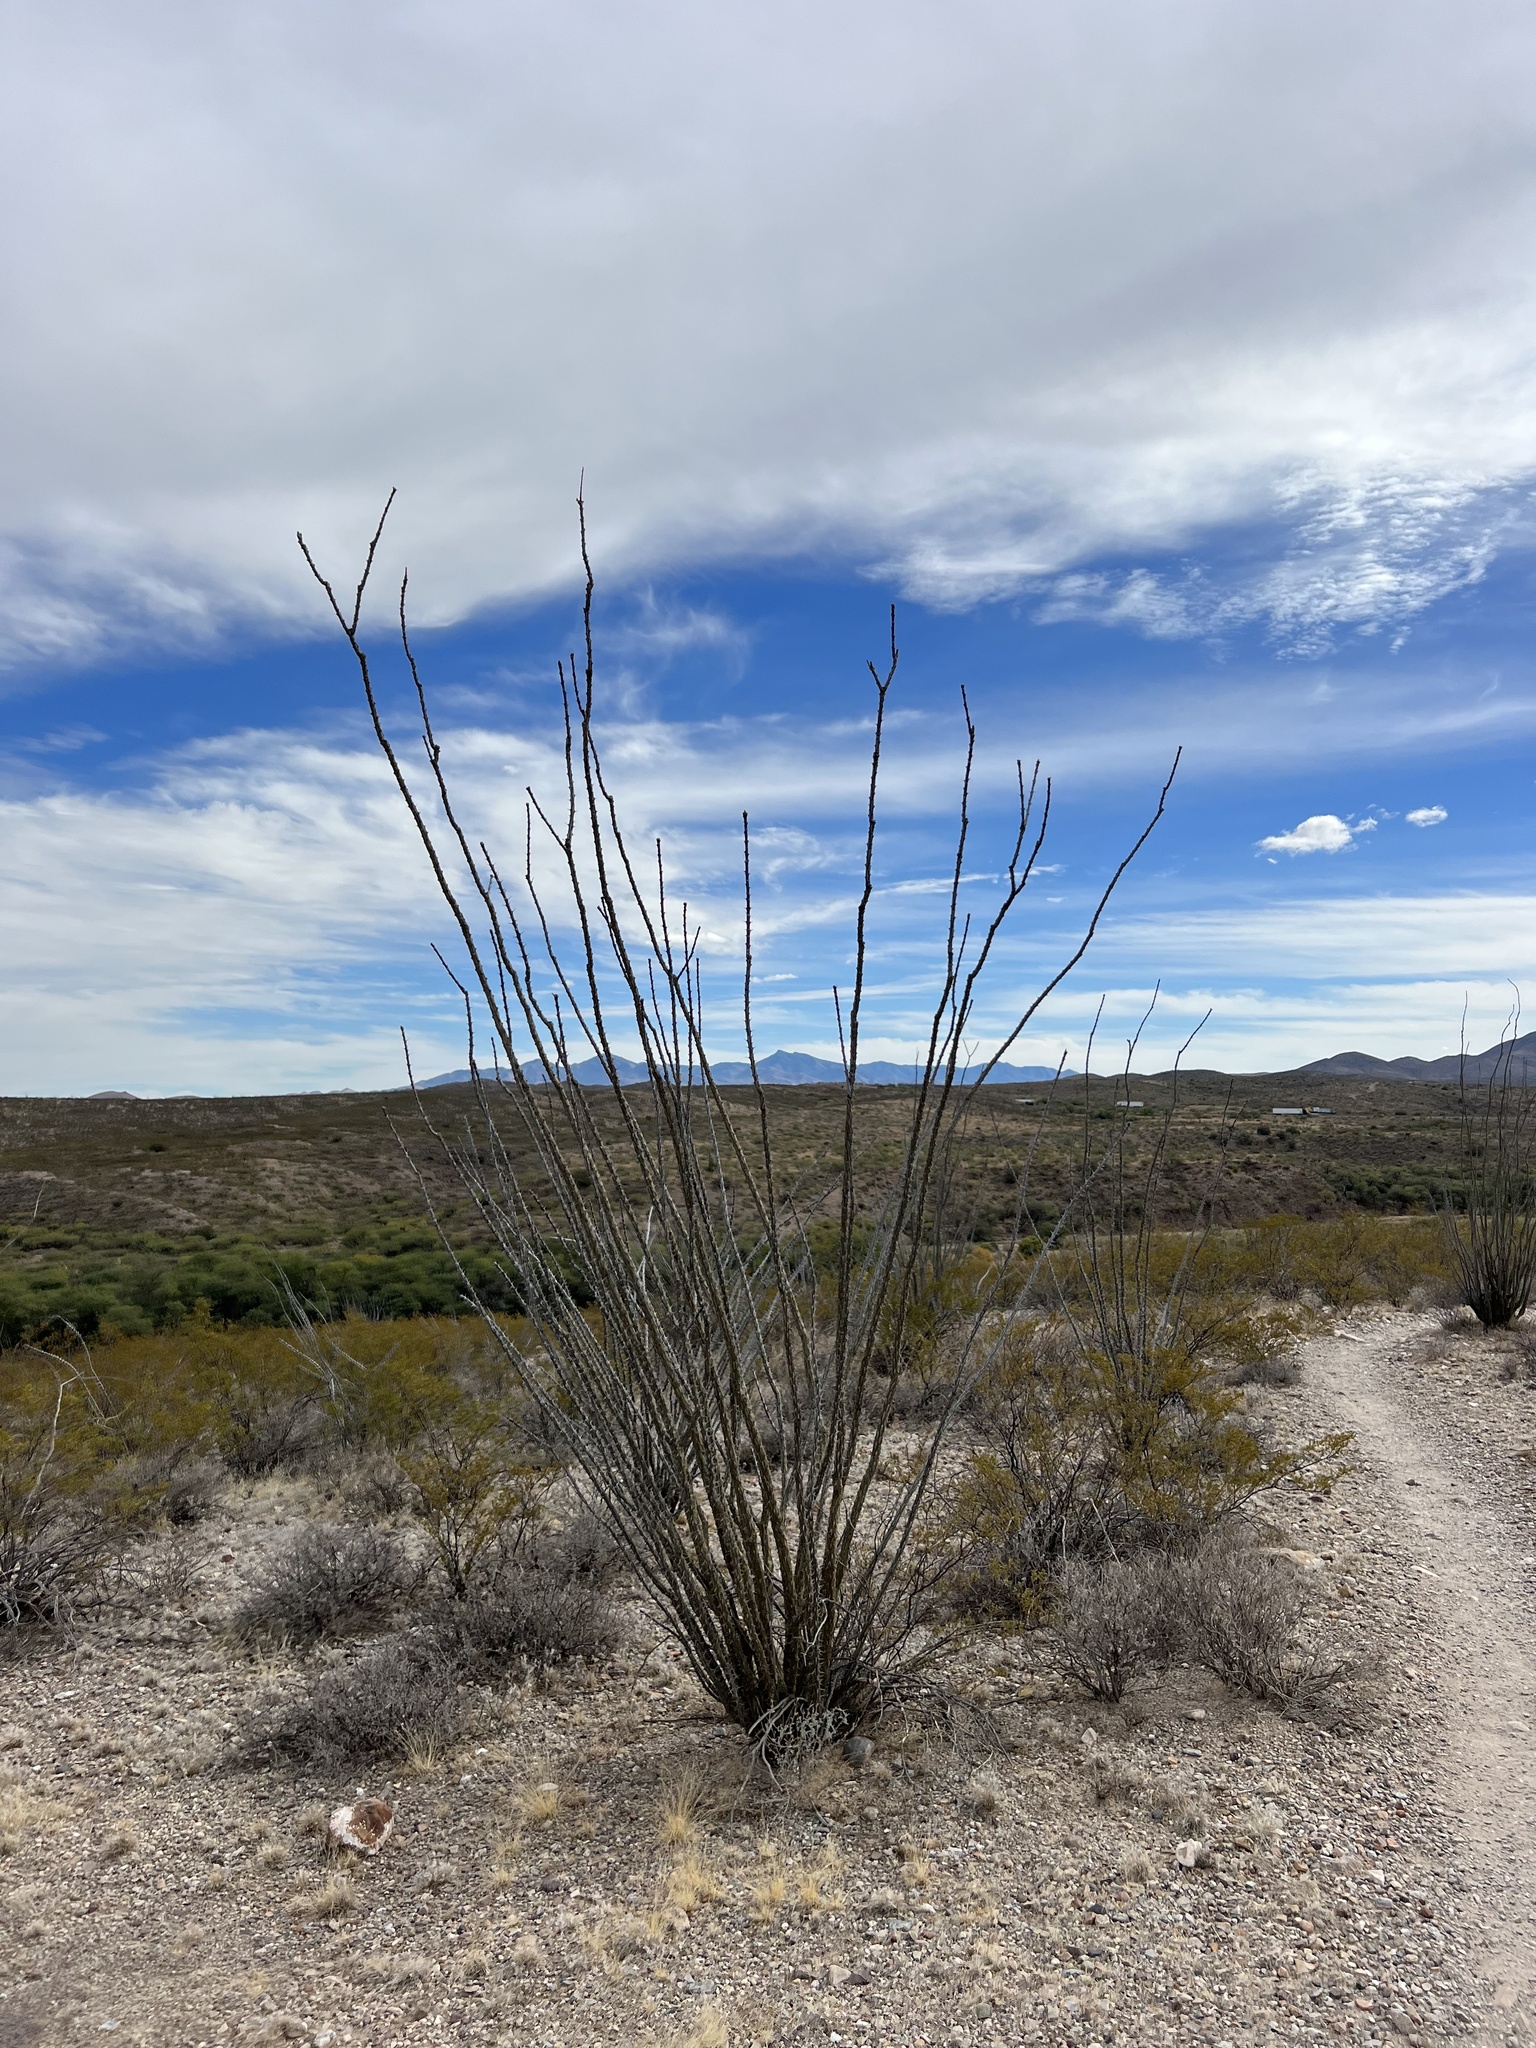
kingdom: Plantae
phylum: Tracheophyta
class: Magnoliopsida
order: Ericales
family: Fouquieriaceae
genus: Fouquieria
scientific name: Fouquieria splendens
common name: Vine-cactus
